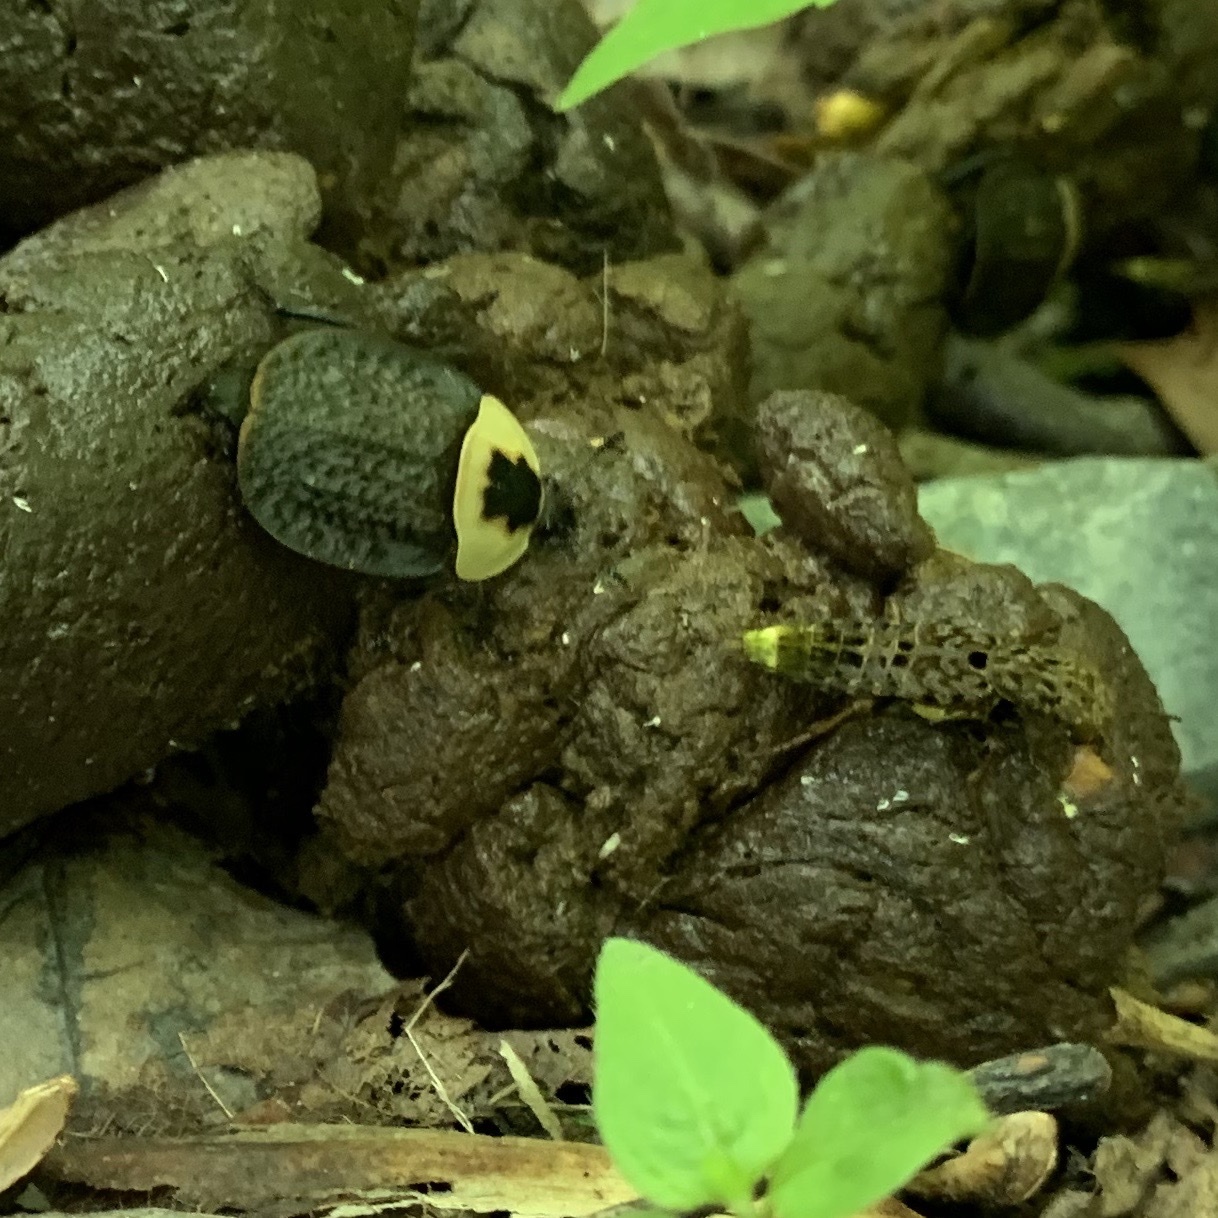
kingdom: Animalia
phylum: Arthropoda
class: Insecta
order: Coleoptera
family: Staphylinidae
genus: Necrophila
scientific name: Necrophila americana
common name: American carrion beetle
